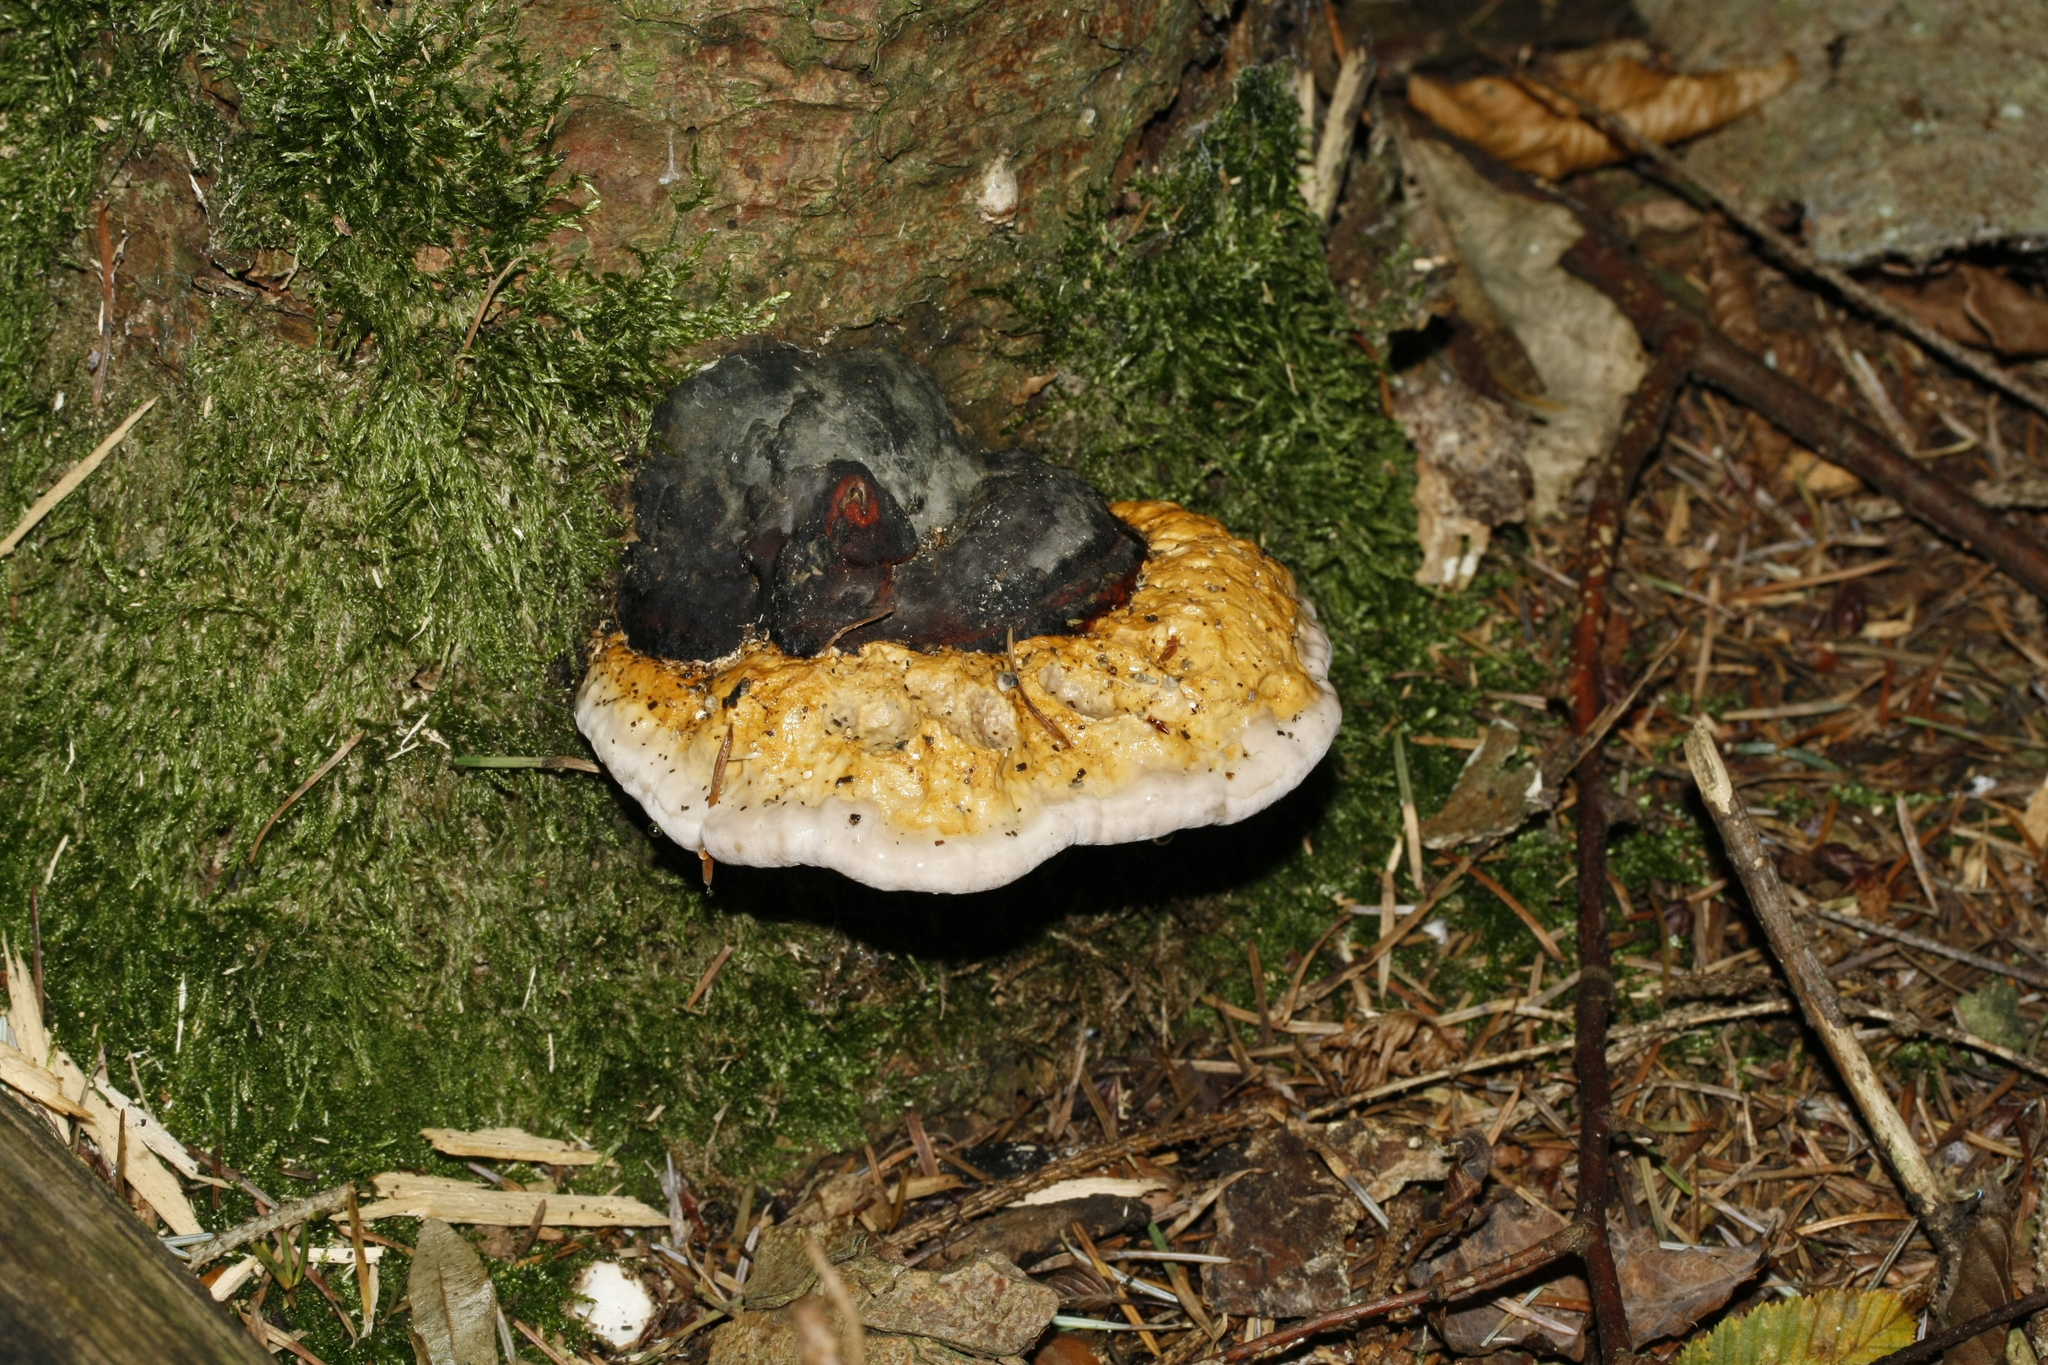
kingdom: Fungi
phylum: Basidiomycota
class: Agaricomycetes
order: Polyporales
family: Fomitopsidaceae
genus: Fomitopsis
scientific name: Fomitopsis pinicola
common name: Red-belted bracket
